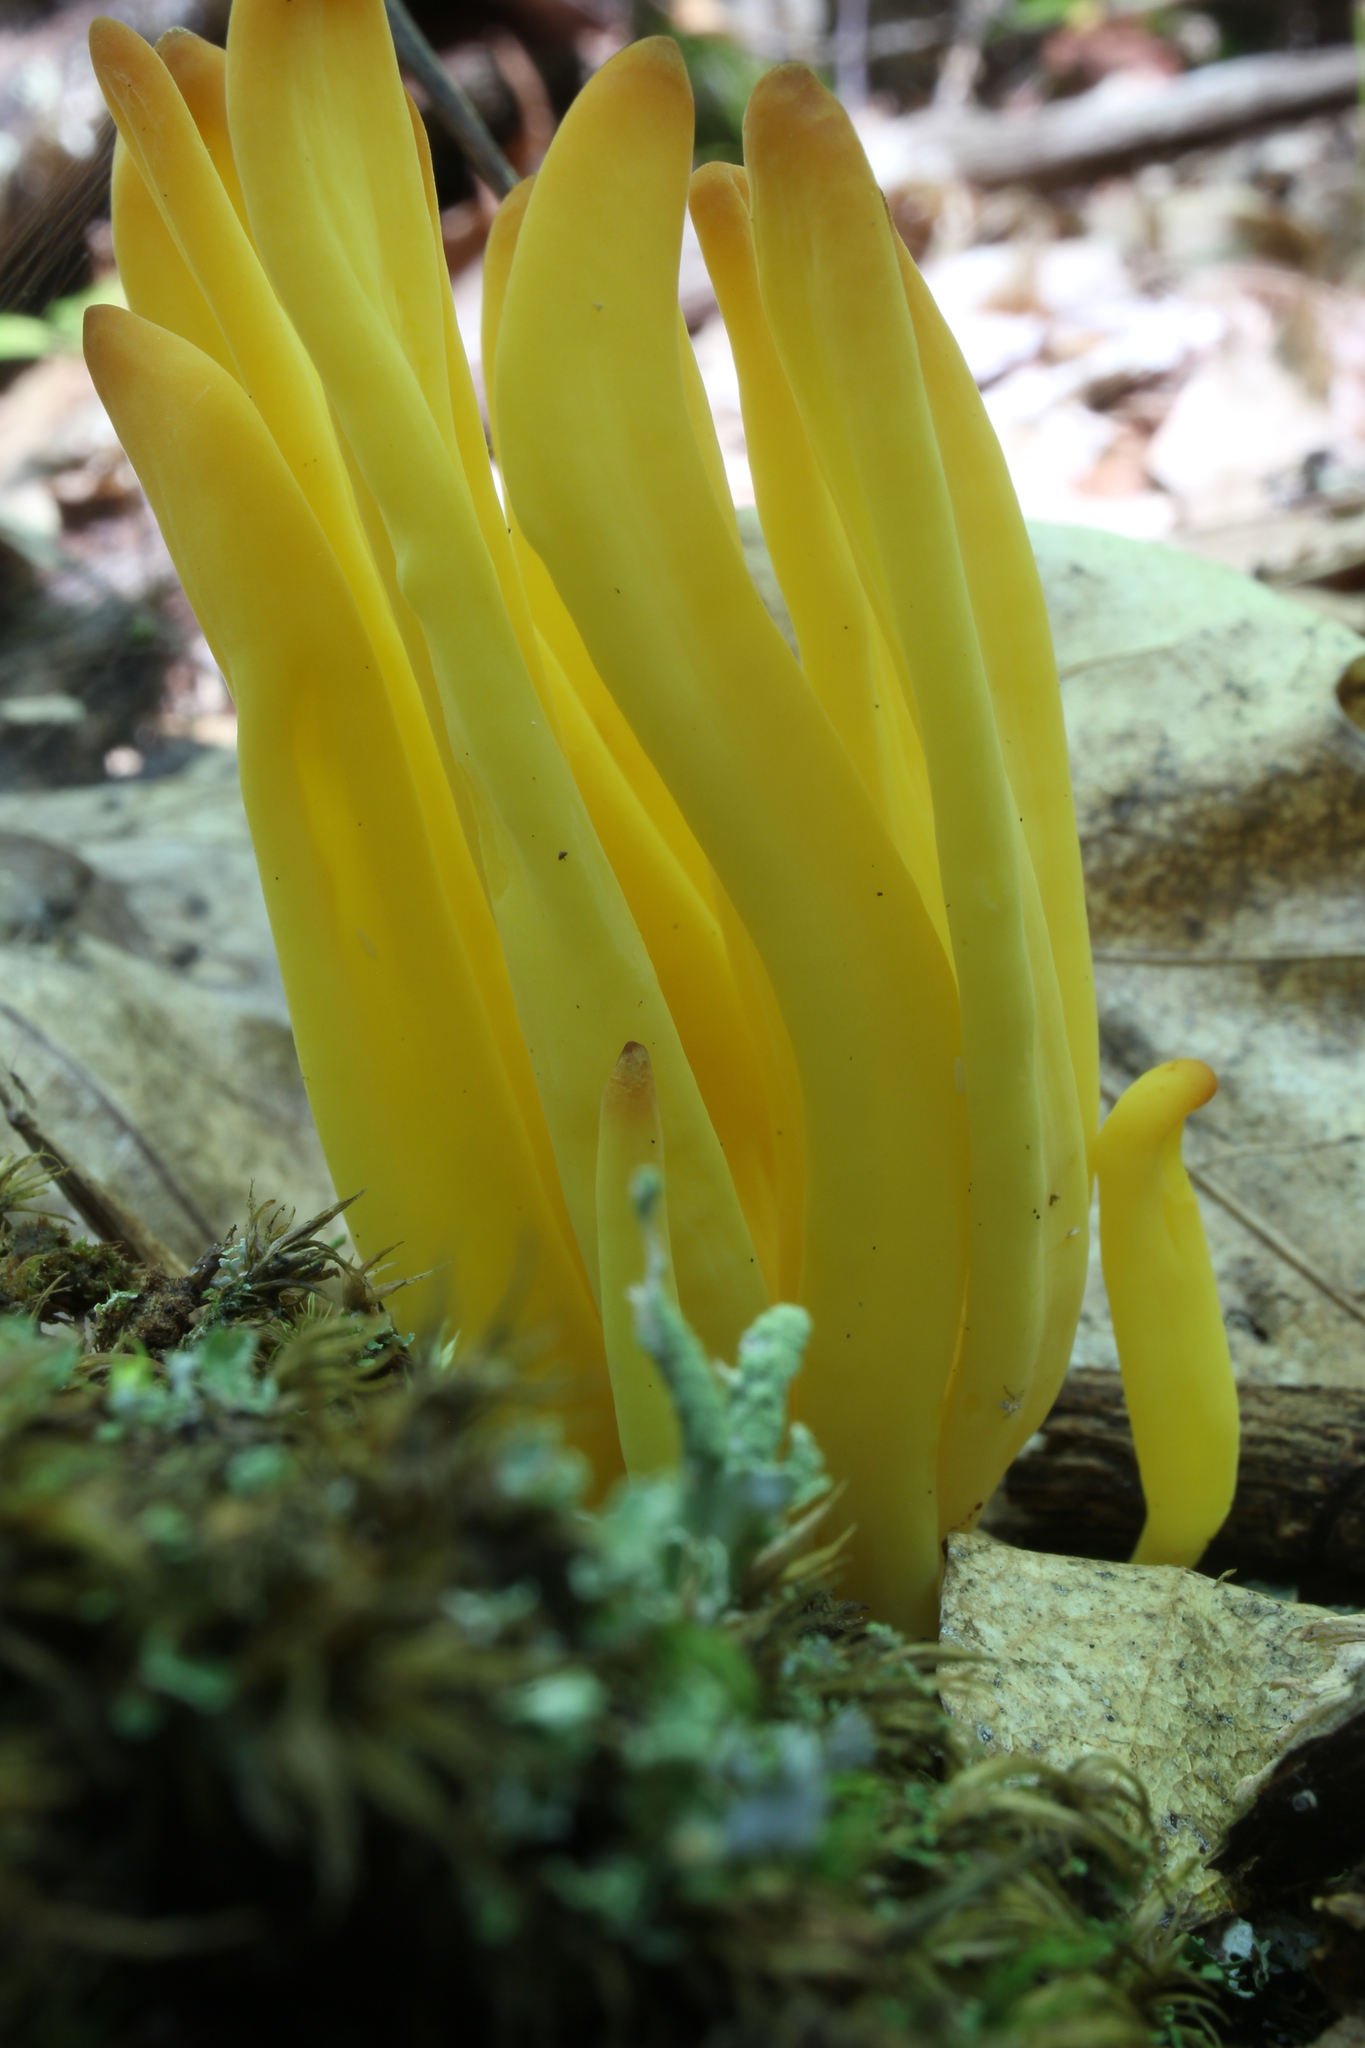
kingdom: Fungi
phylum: Basidiomycota
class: Agaricomycetes
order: Agaricales
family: Clavariaceae
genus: Clavulinopsis
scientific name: Clavulinopsis fusiformis
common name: Golden spindles
